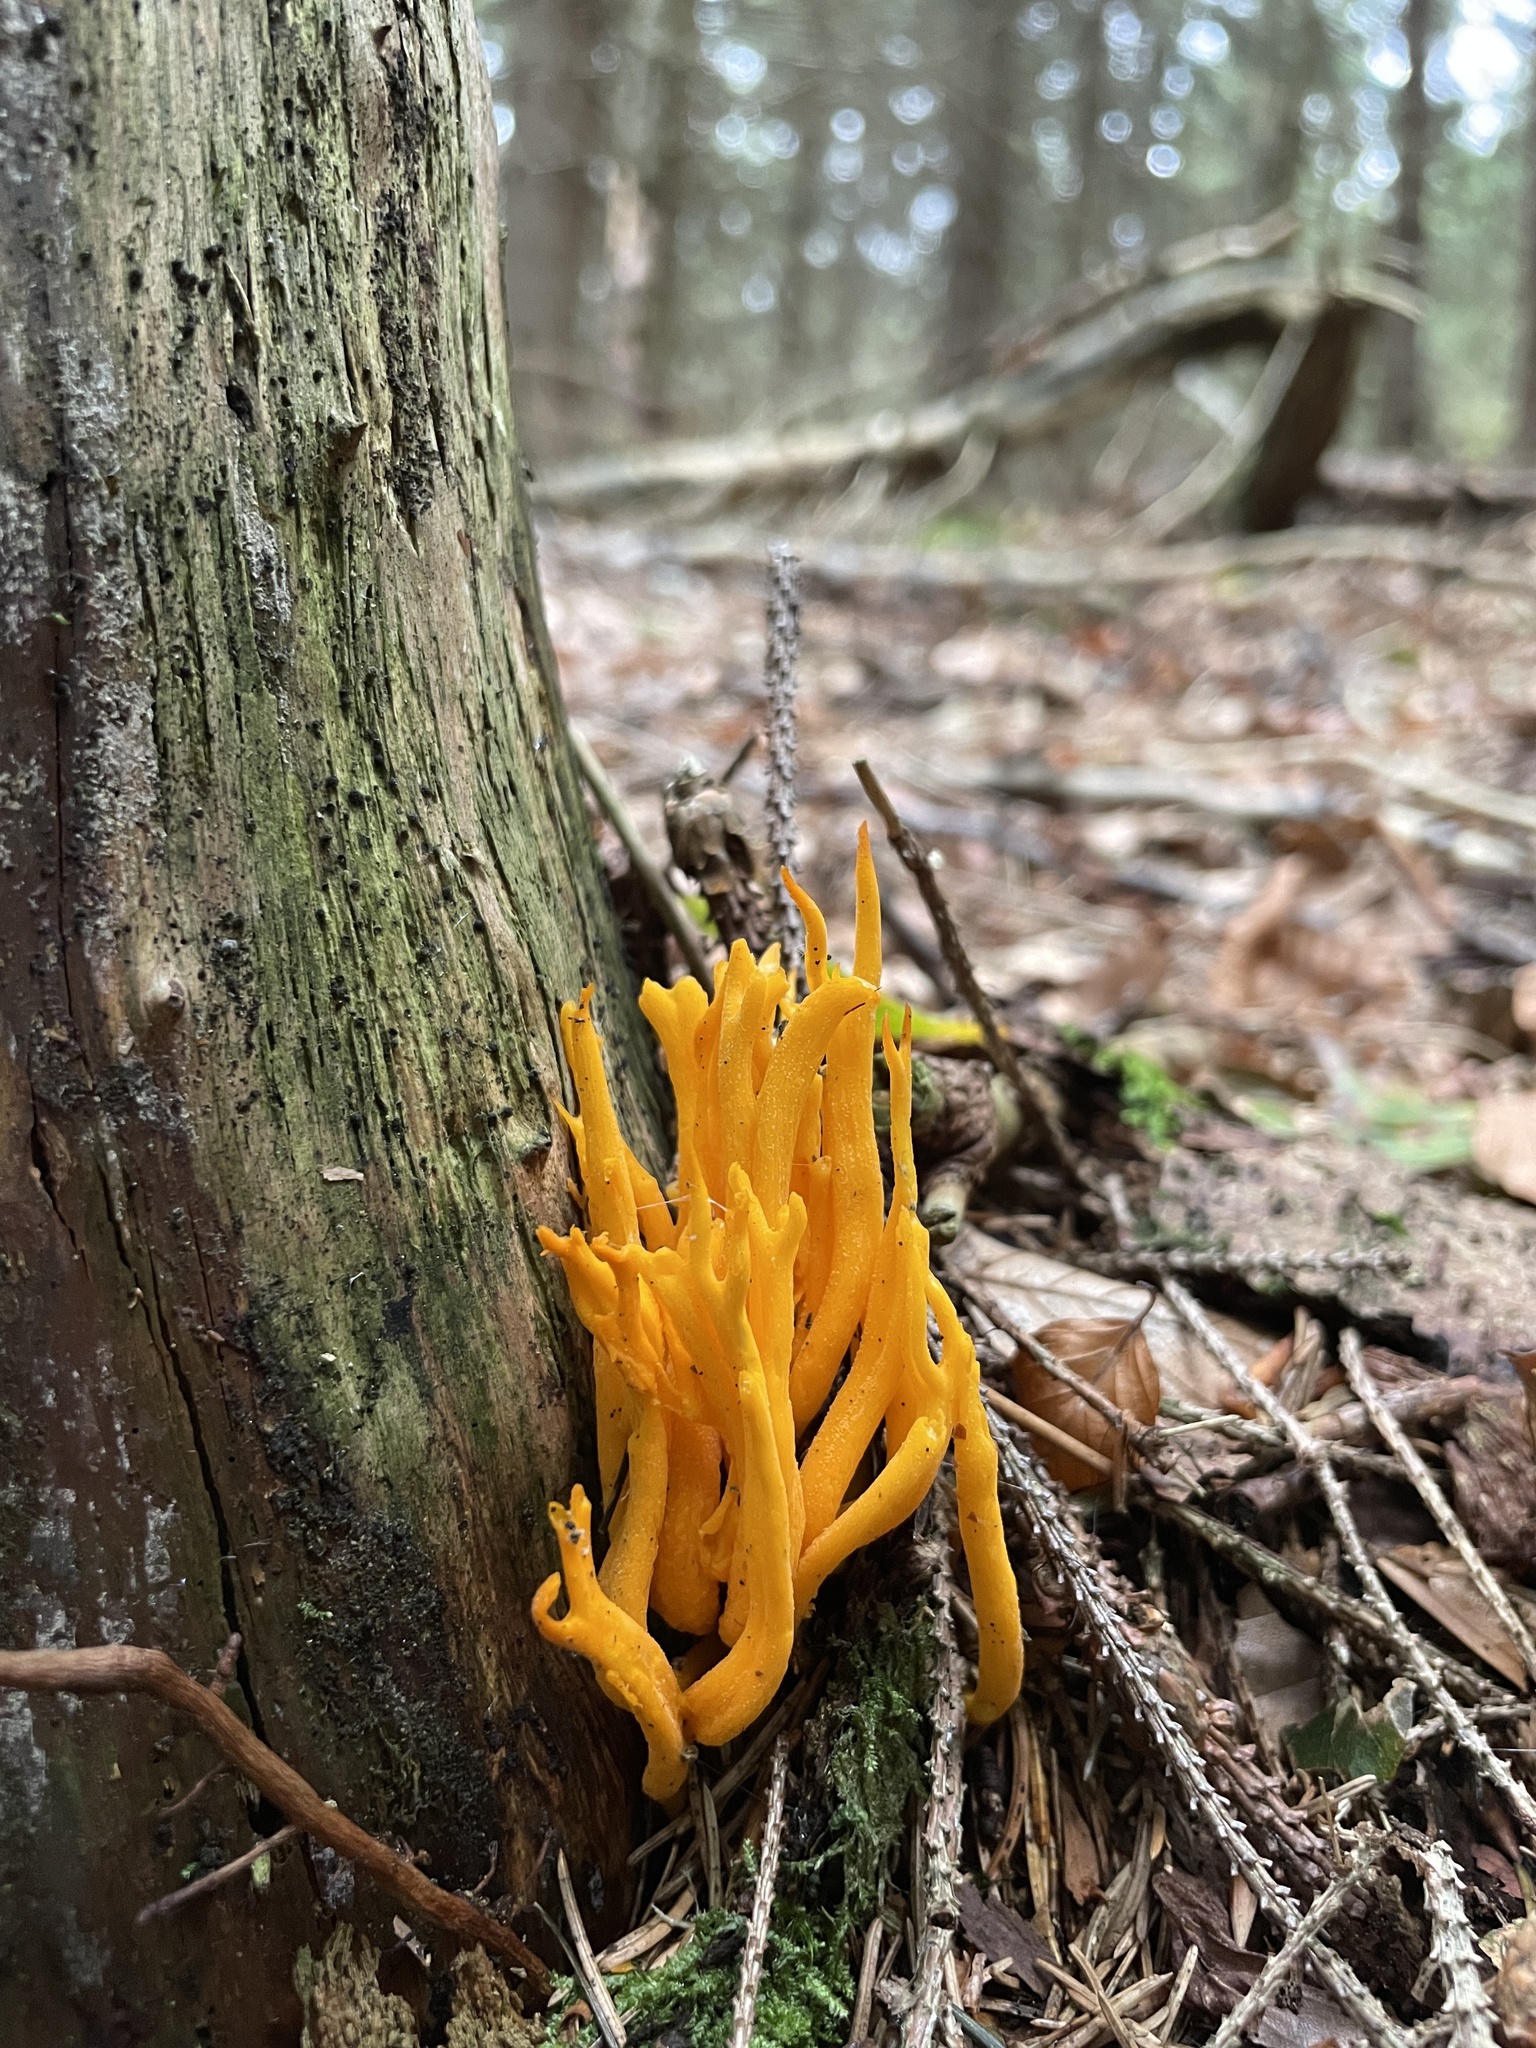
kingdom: Fungi
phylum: Basidiomycota
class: Dacrymycetes
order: Dacrymycetales
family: Dacrymycetaceae
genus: Calocera
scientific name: Calocera viscosa
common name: Yellow stagshorn
